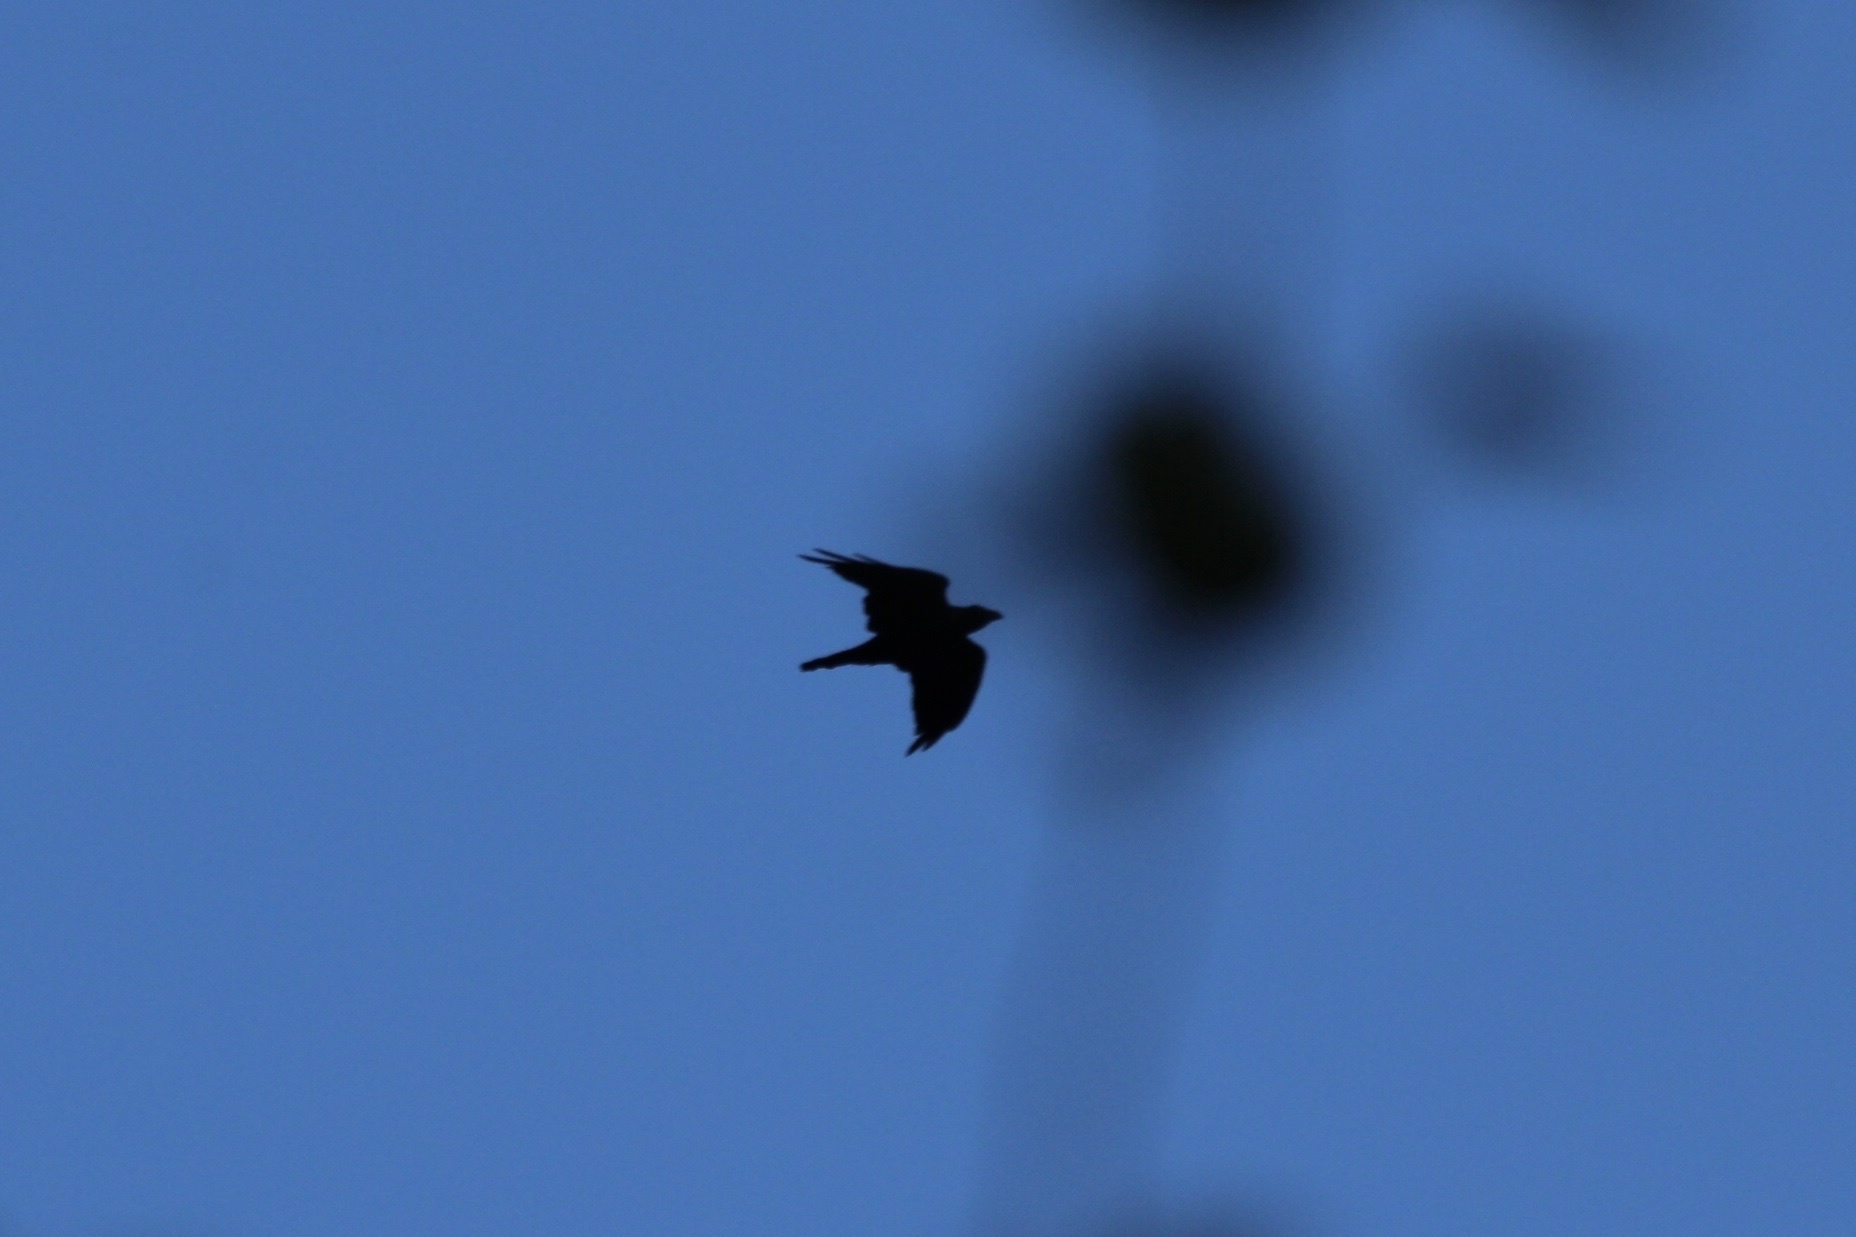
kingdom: Animalia
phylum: Chordata
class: Aves
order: Passeriformes
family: Corvidae
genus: Corvus
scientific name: Corvus corax
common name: Common raven
